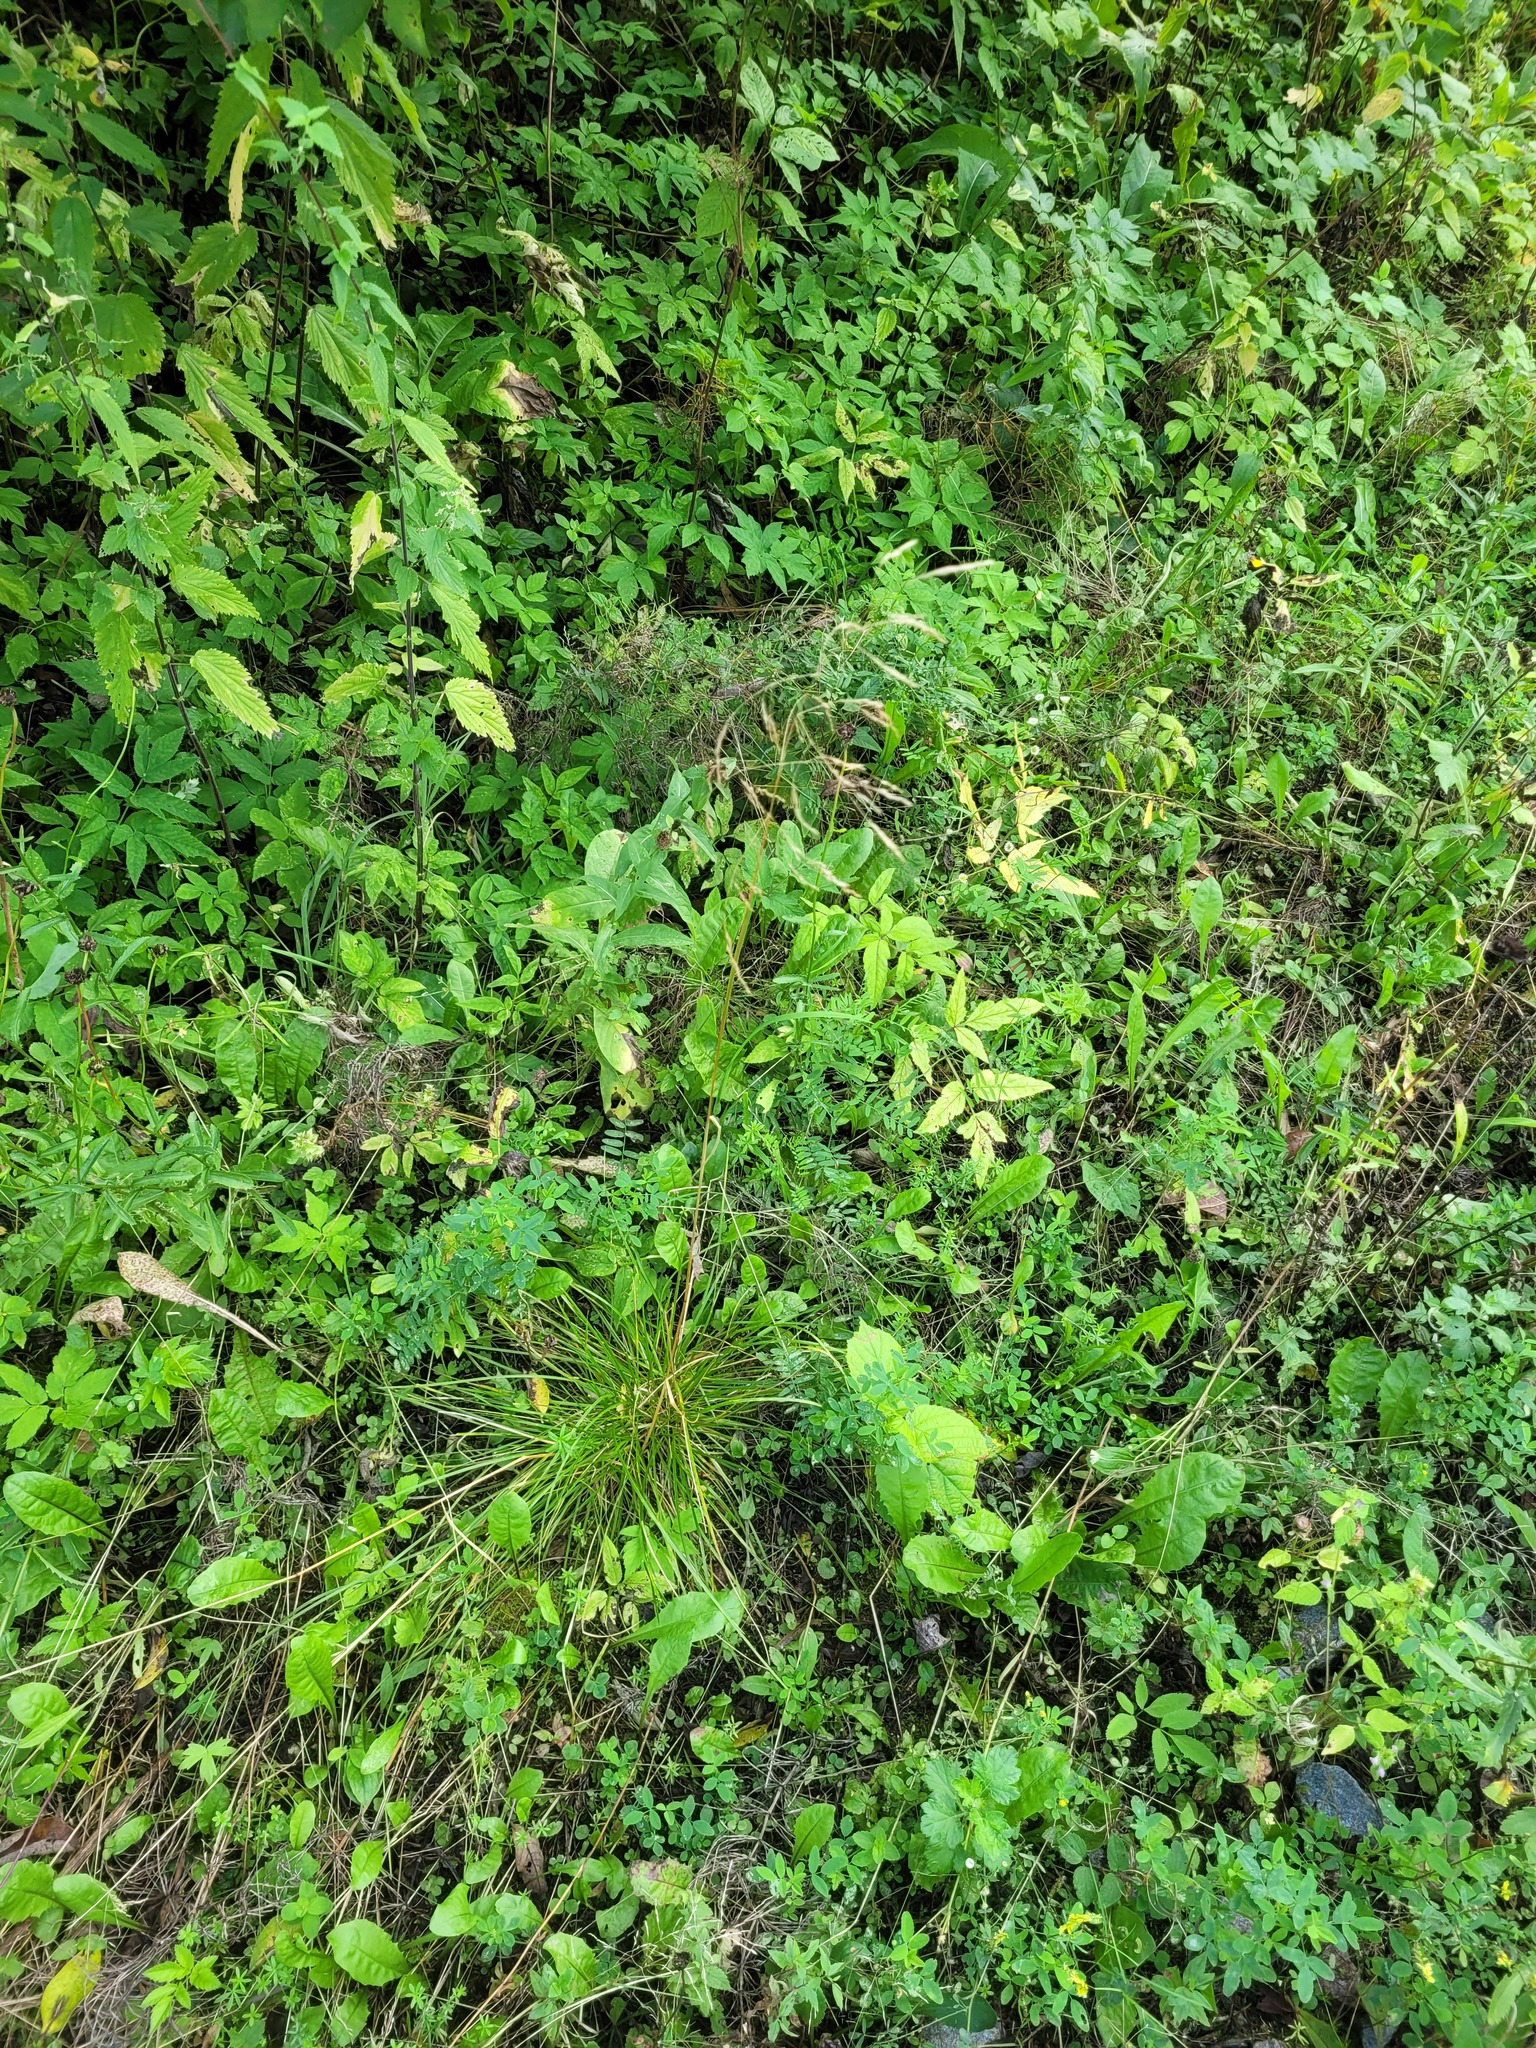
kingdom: Plantae
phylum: Tracheophyta
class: Liliopsida
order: Poales
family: Poaceae
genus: Deschampsia
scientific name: Deschampsia cespitosa
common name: Tufted hair-grass
